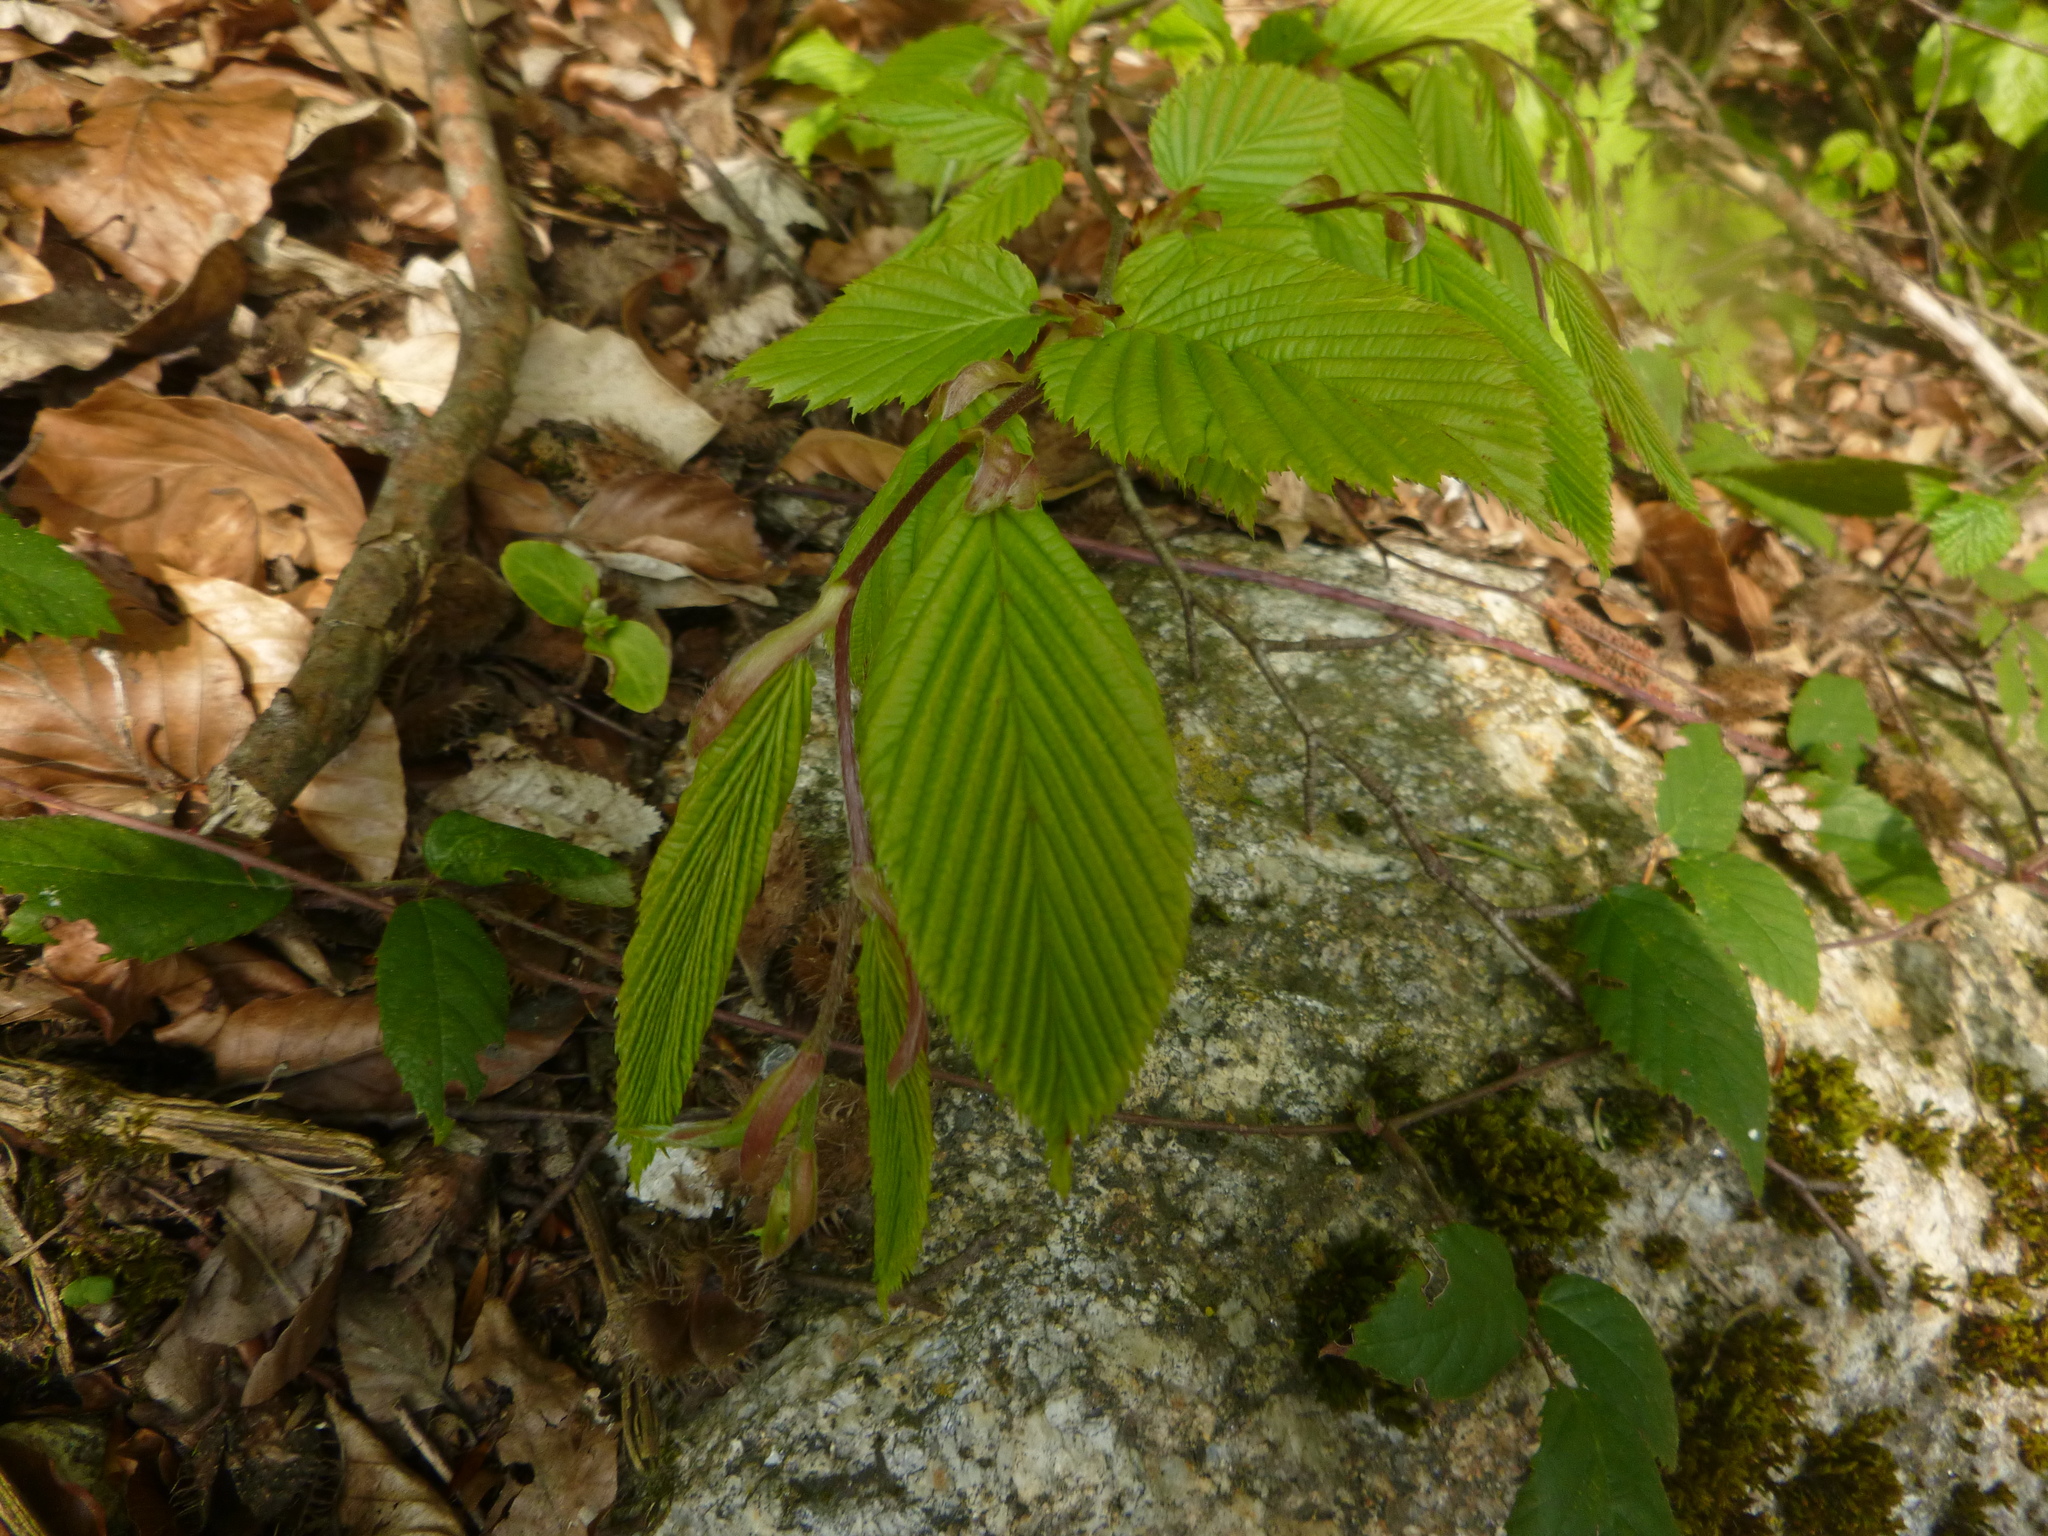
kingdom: Plantae
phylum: Tracheophyta
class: Magnoliopsida
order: Fagales
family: Betulaceae
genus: Carpinus
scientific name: Carpinus betulus
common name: Hornbeam
